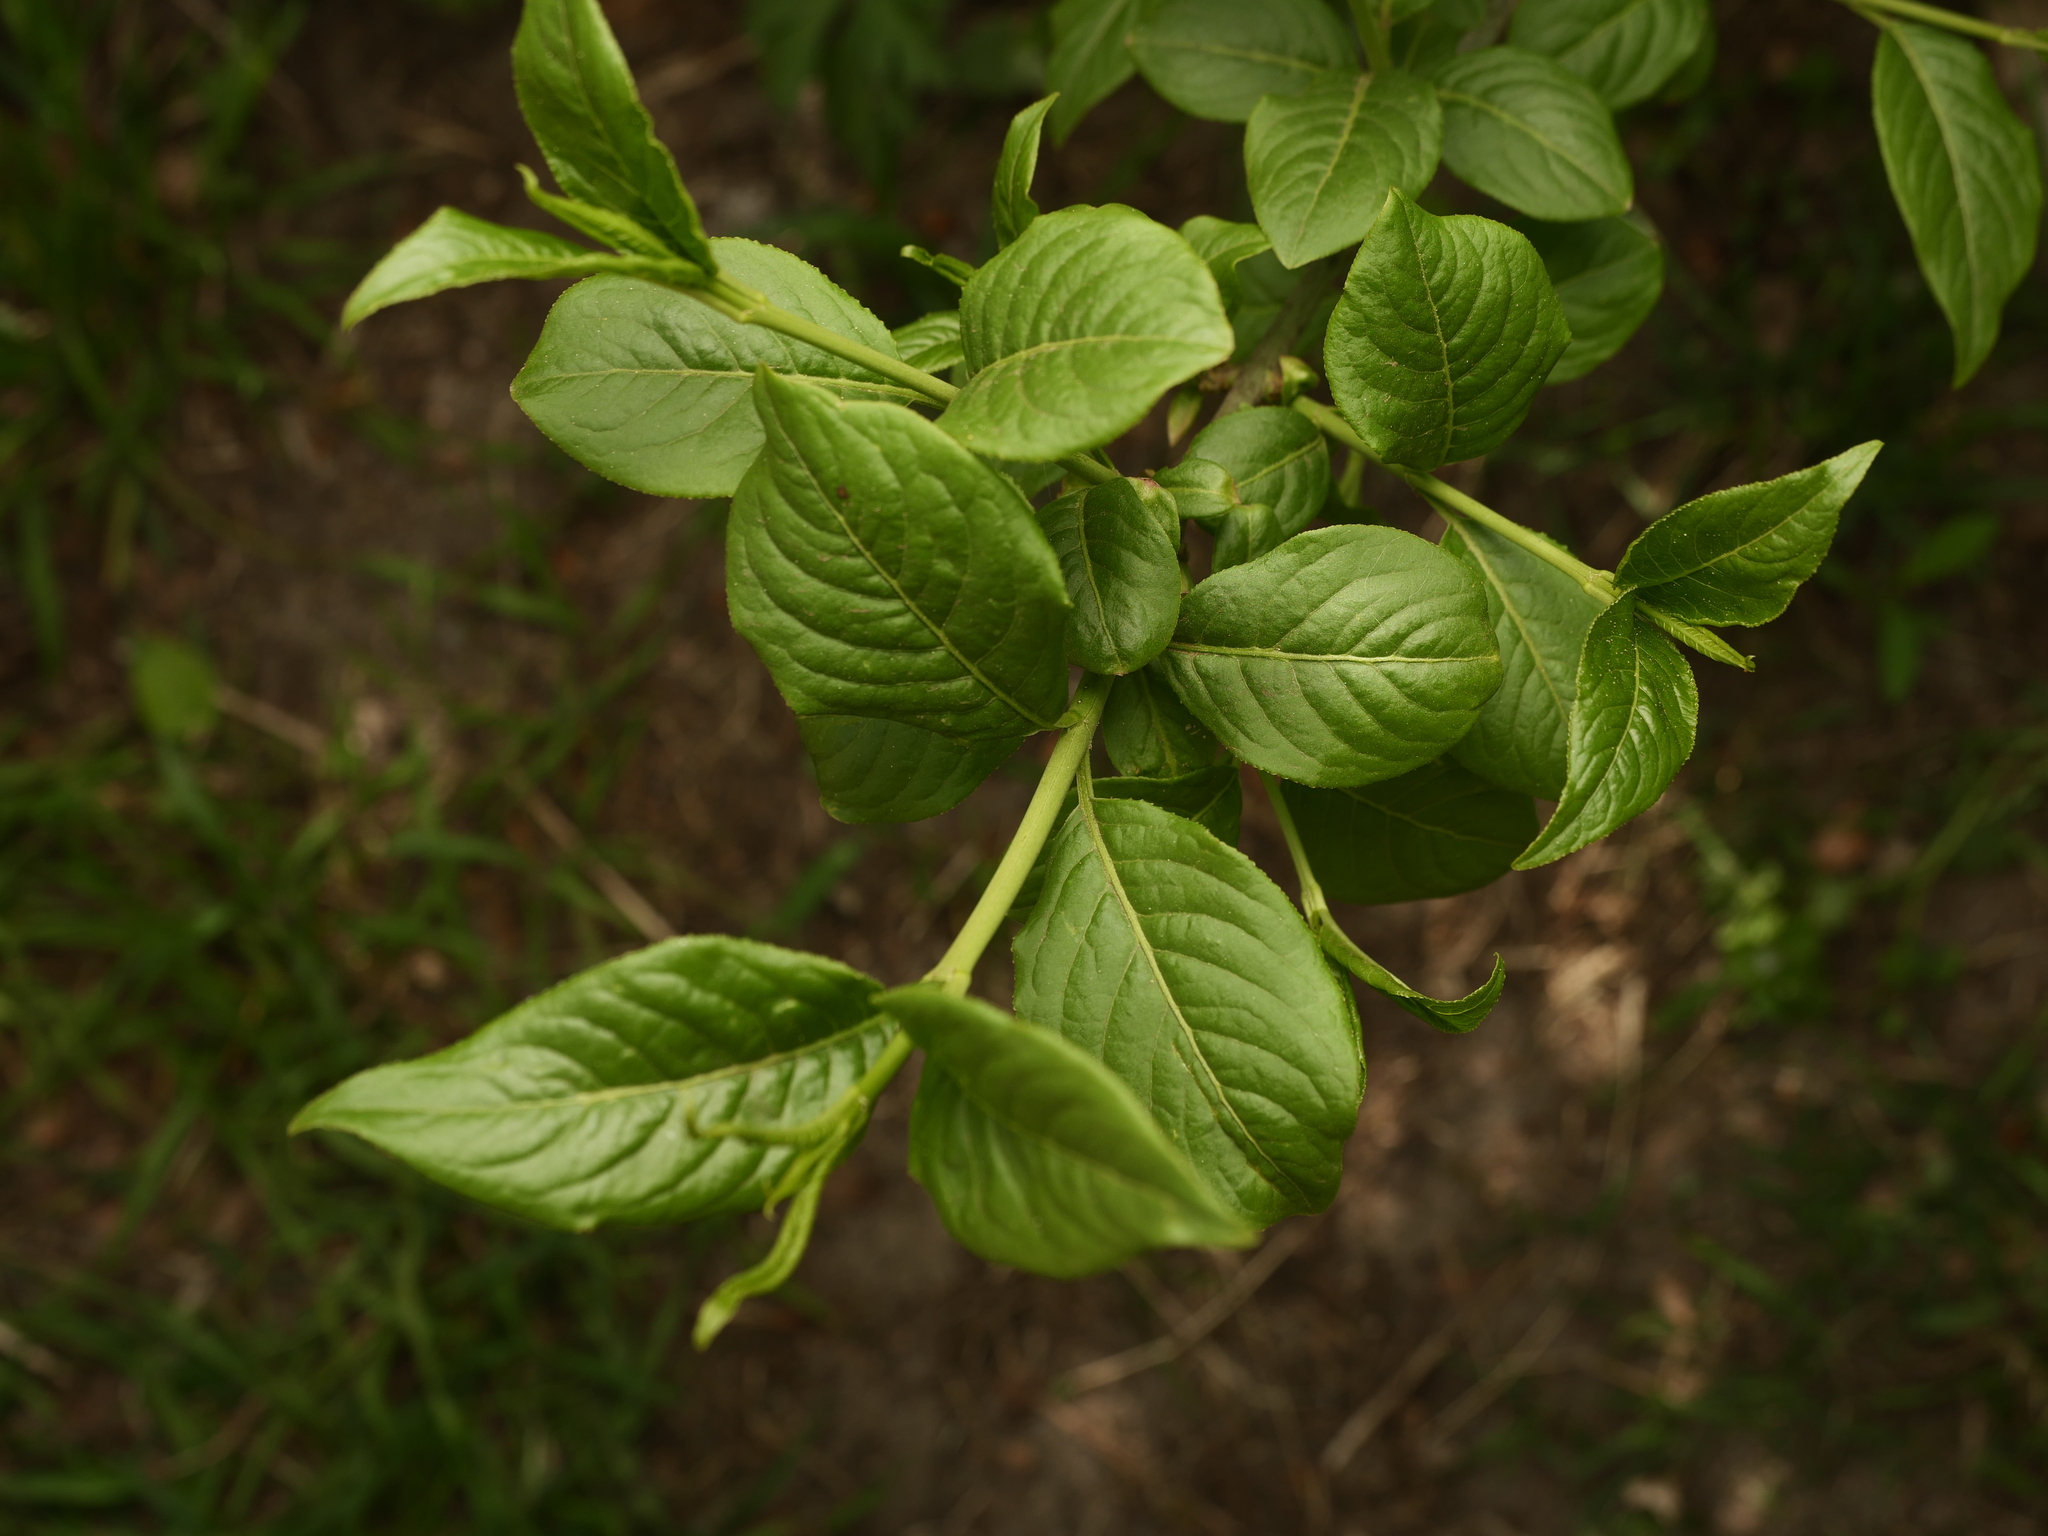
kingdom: Plantae
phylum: Tracheophyta
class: Magnoliopsida
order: Celastrales
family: Celastraceae
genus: Euonymus
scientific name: Euonymus europaeus
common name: Spindle
